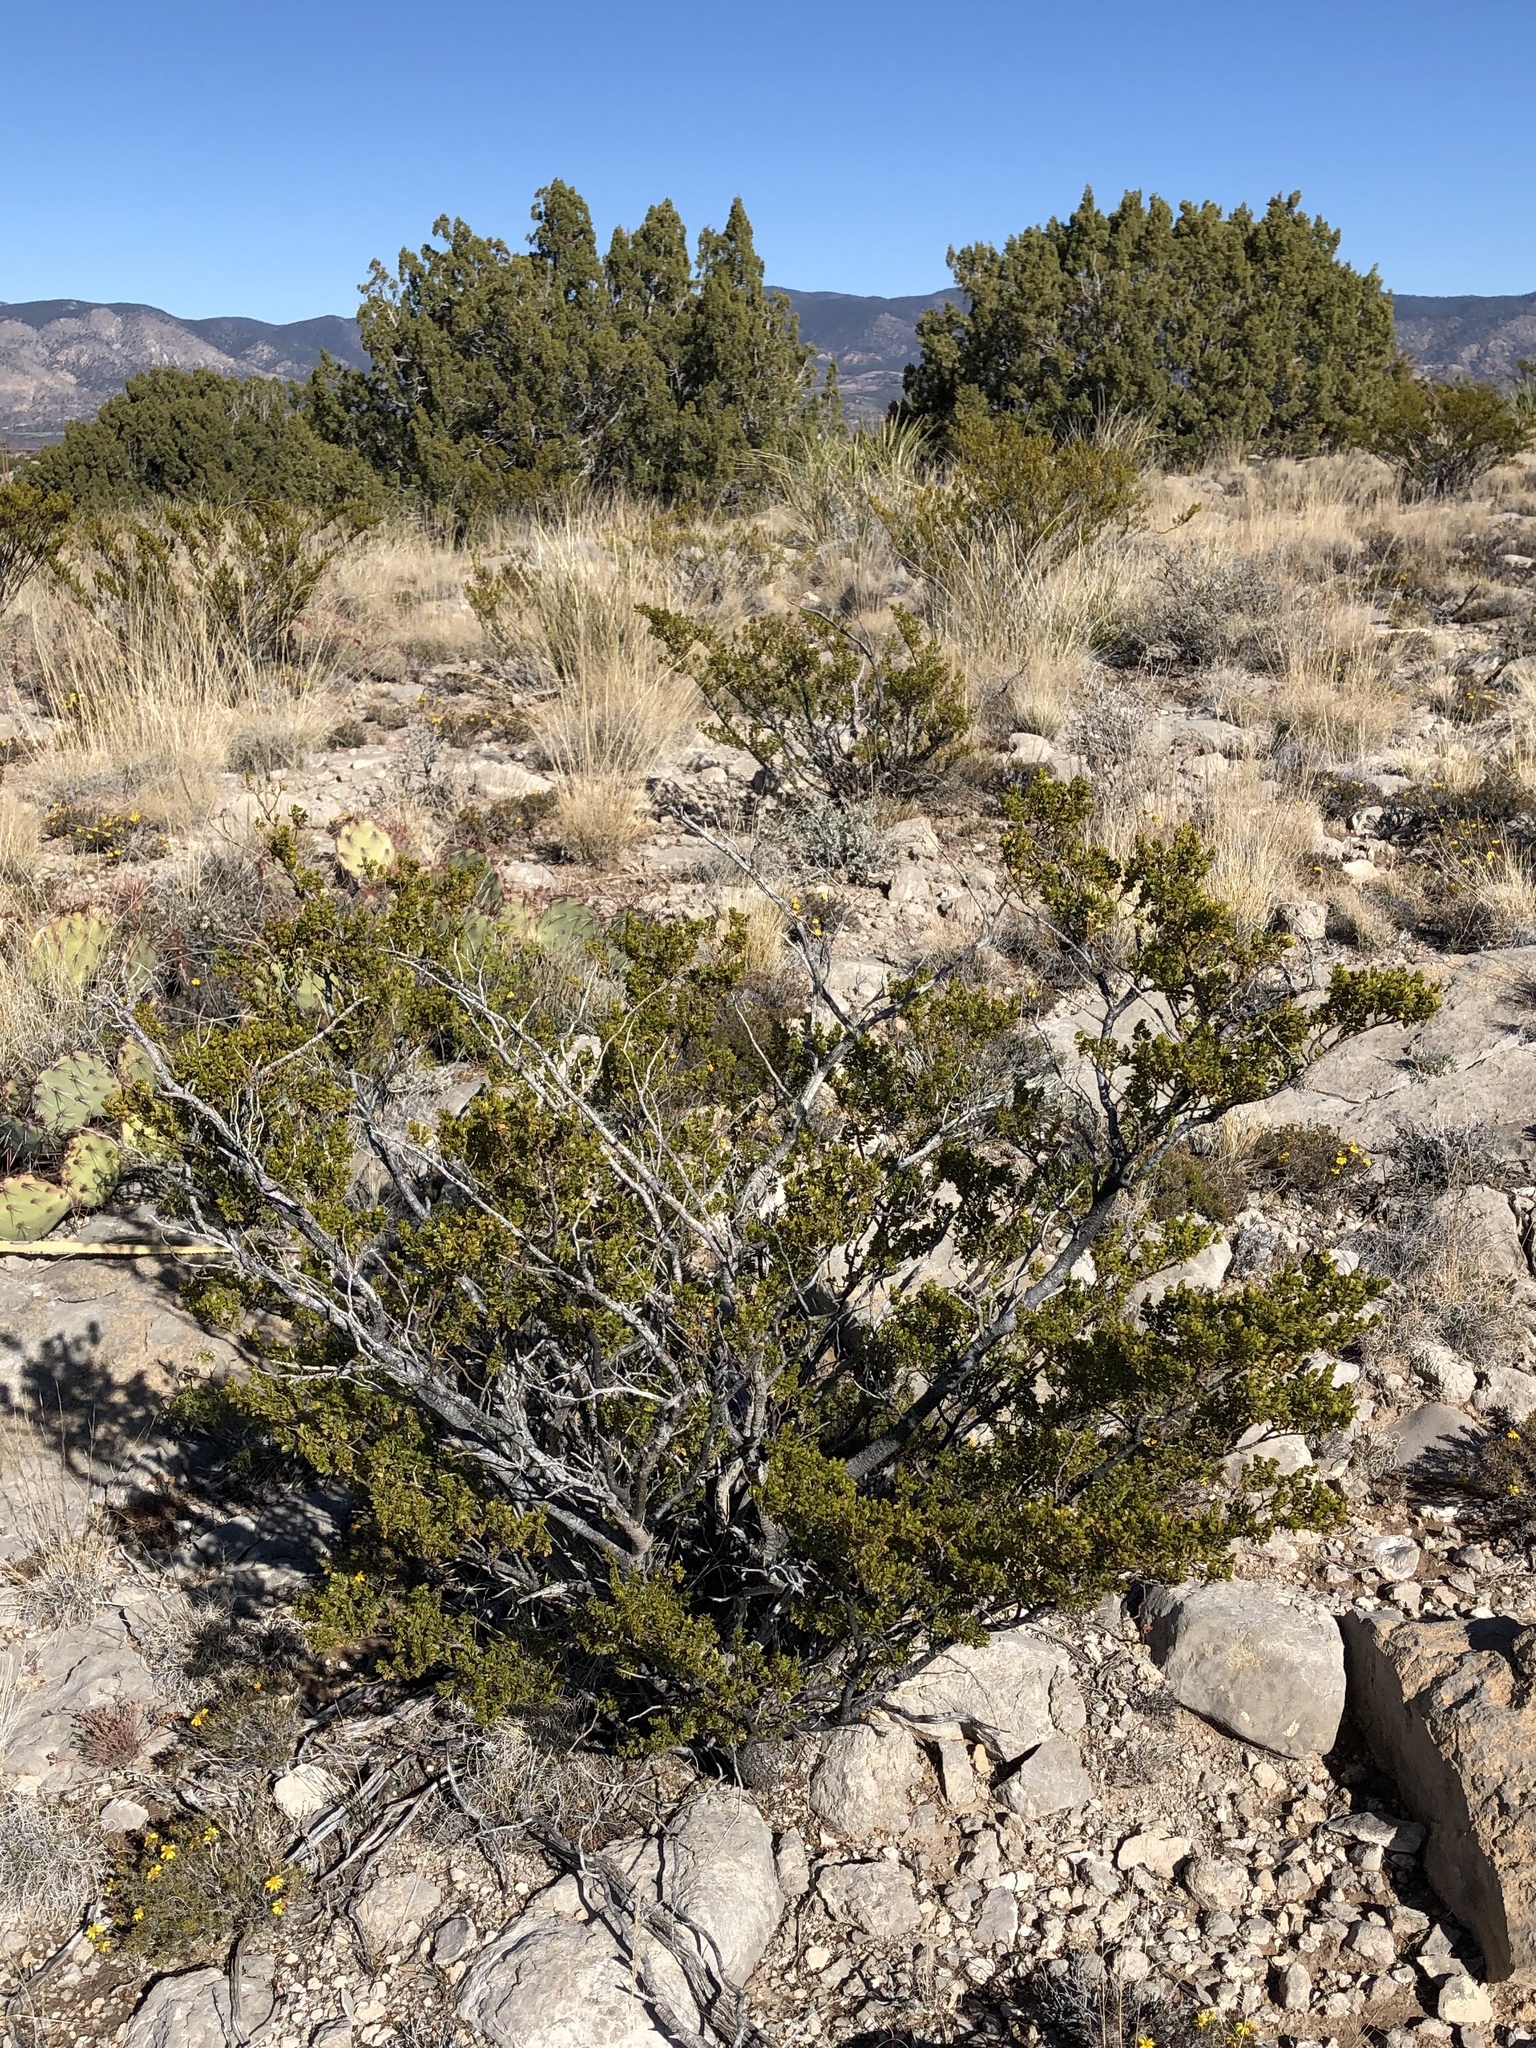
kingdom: Plantae
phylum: Tracheophyta
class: Magnoliopsida
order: Zygophyllales
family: Zygophyllaceae
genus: Larrea
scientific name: Larrea tridentata
